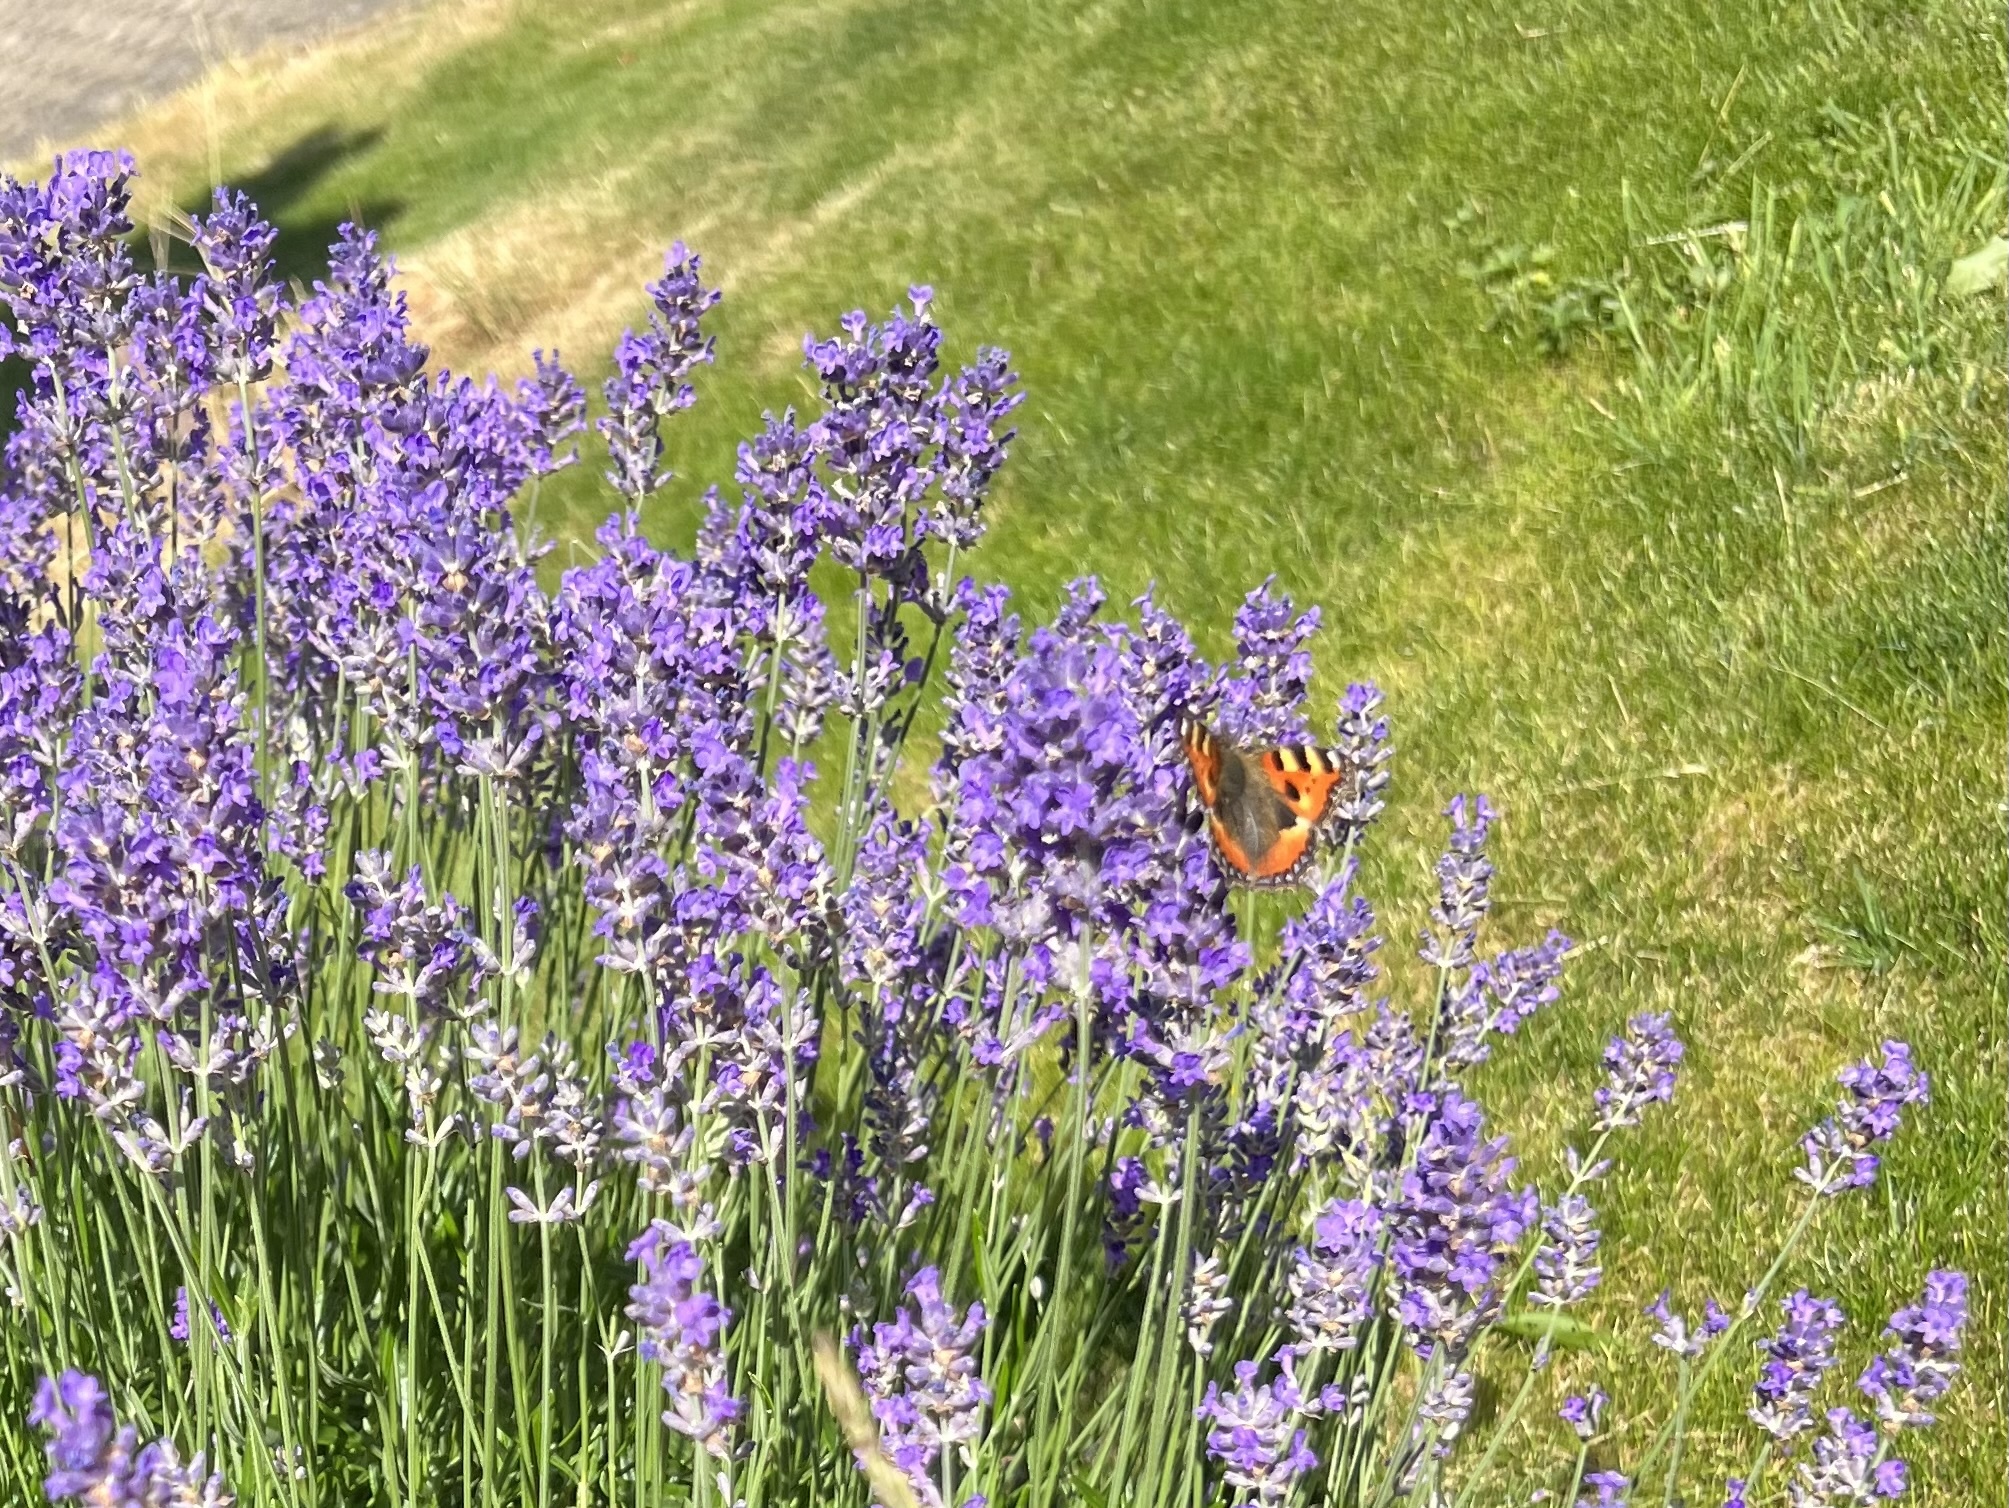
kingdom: Animalia
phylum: Arthropoda
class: Insecta
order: Lepidoptera
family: Nymphalidae
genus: Aglais
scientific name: Aglais urticae
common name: Small tortoiseshell
